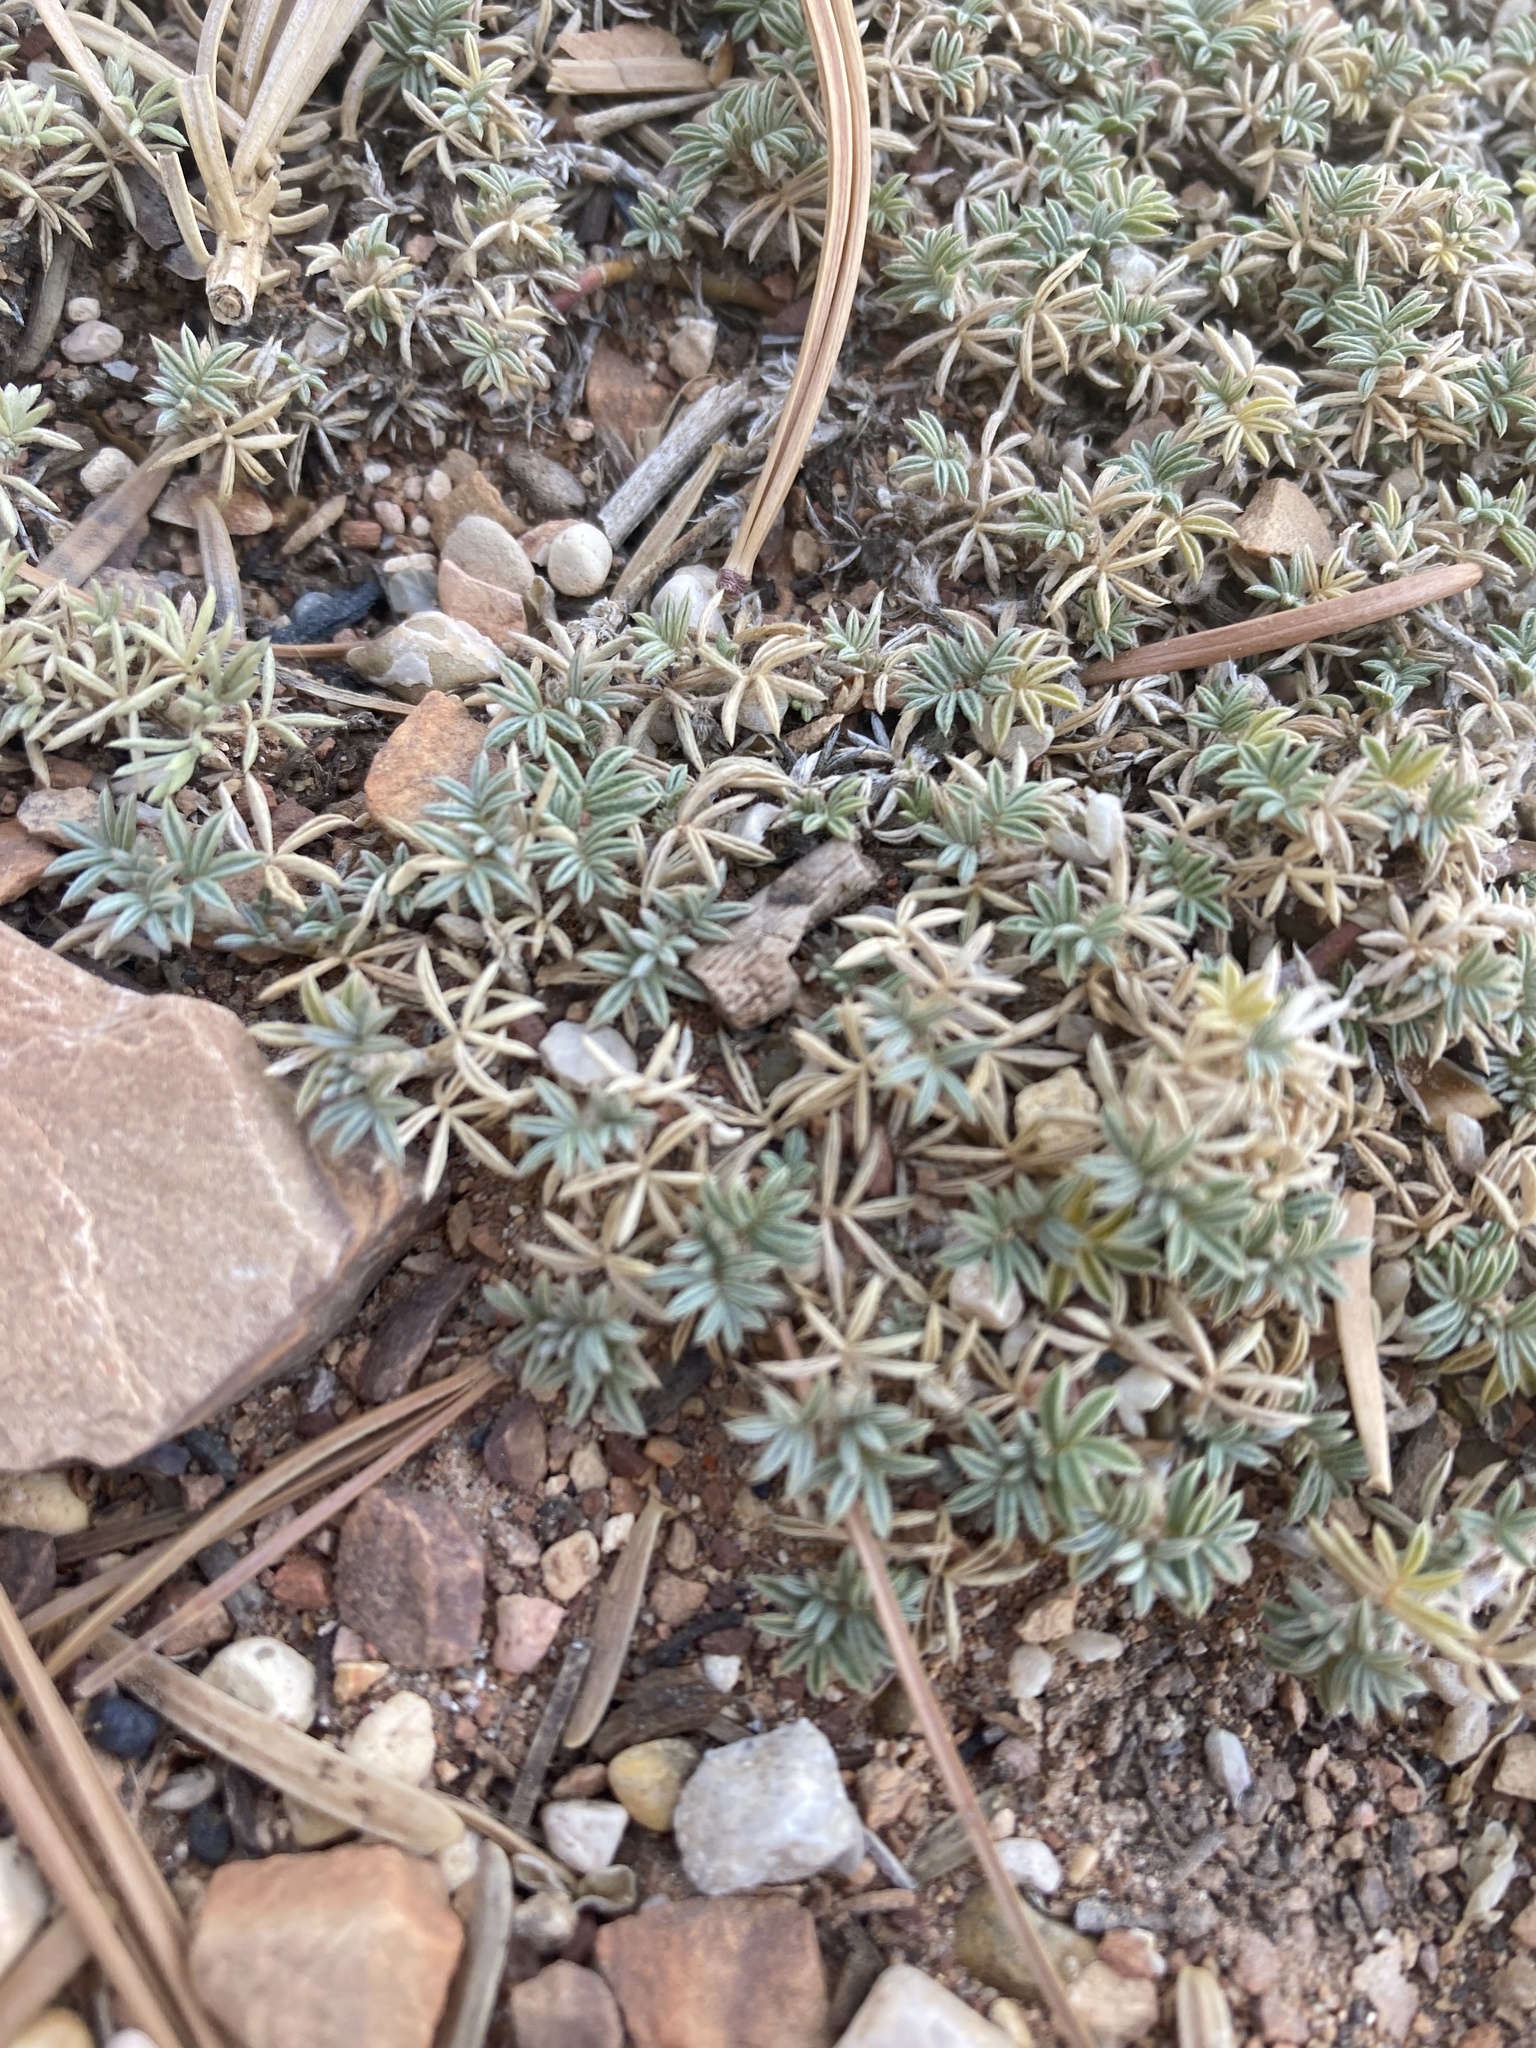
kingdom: Plantae
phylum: Tracheophyta
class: Magnoliopsida
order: Fabales
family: Fabaceae
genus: Astragalus
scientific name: Astragalus kentrophyta
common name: Prickly milk-vetch
